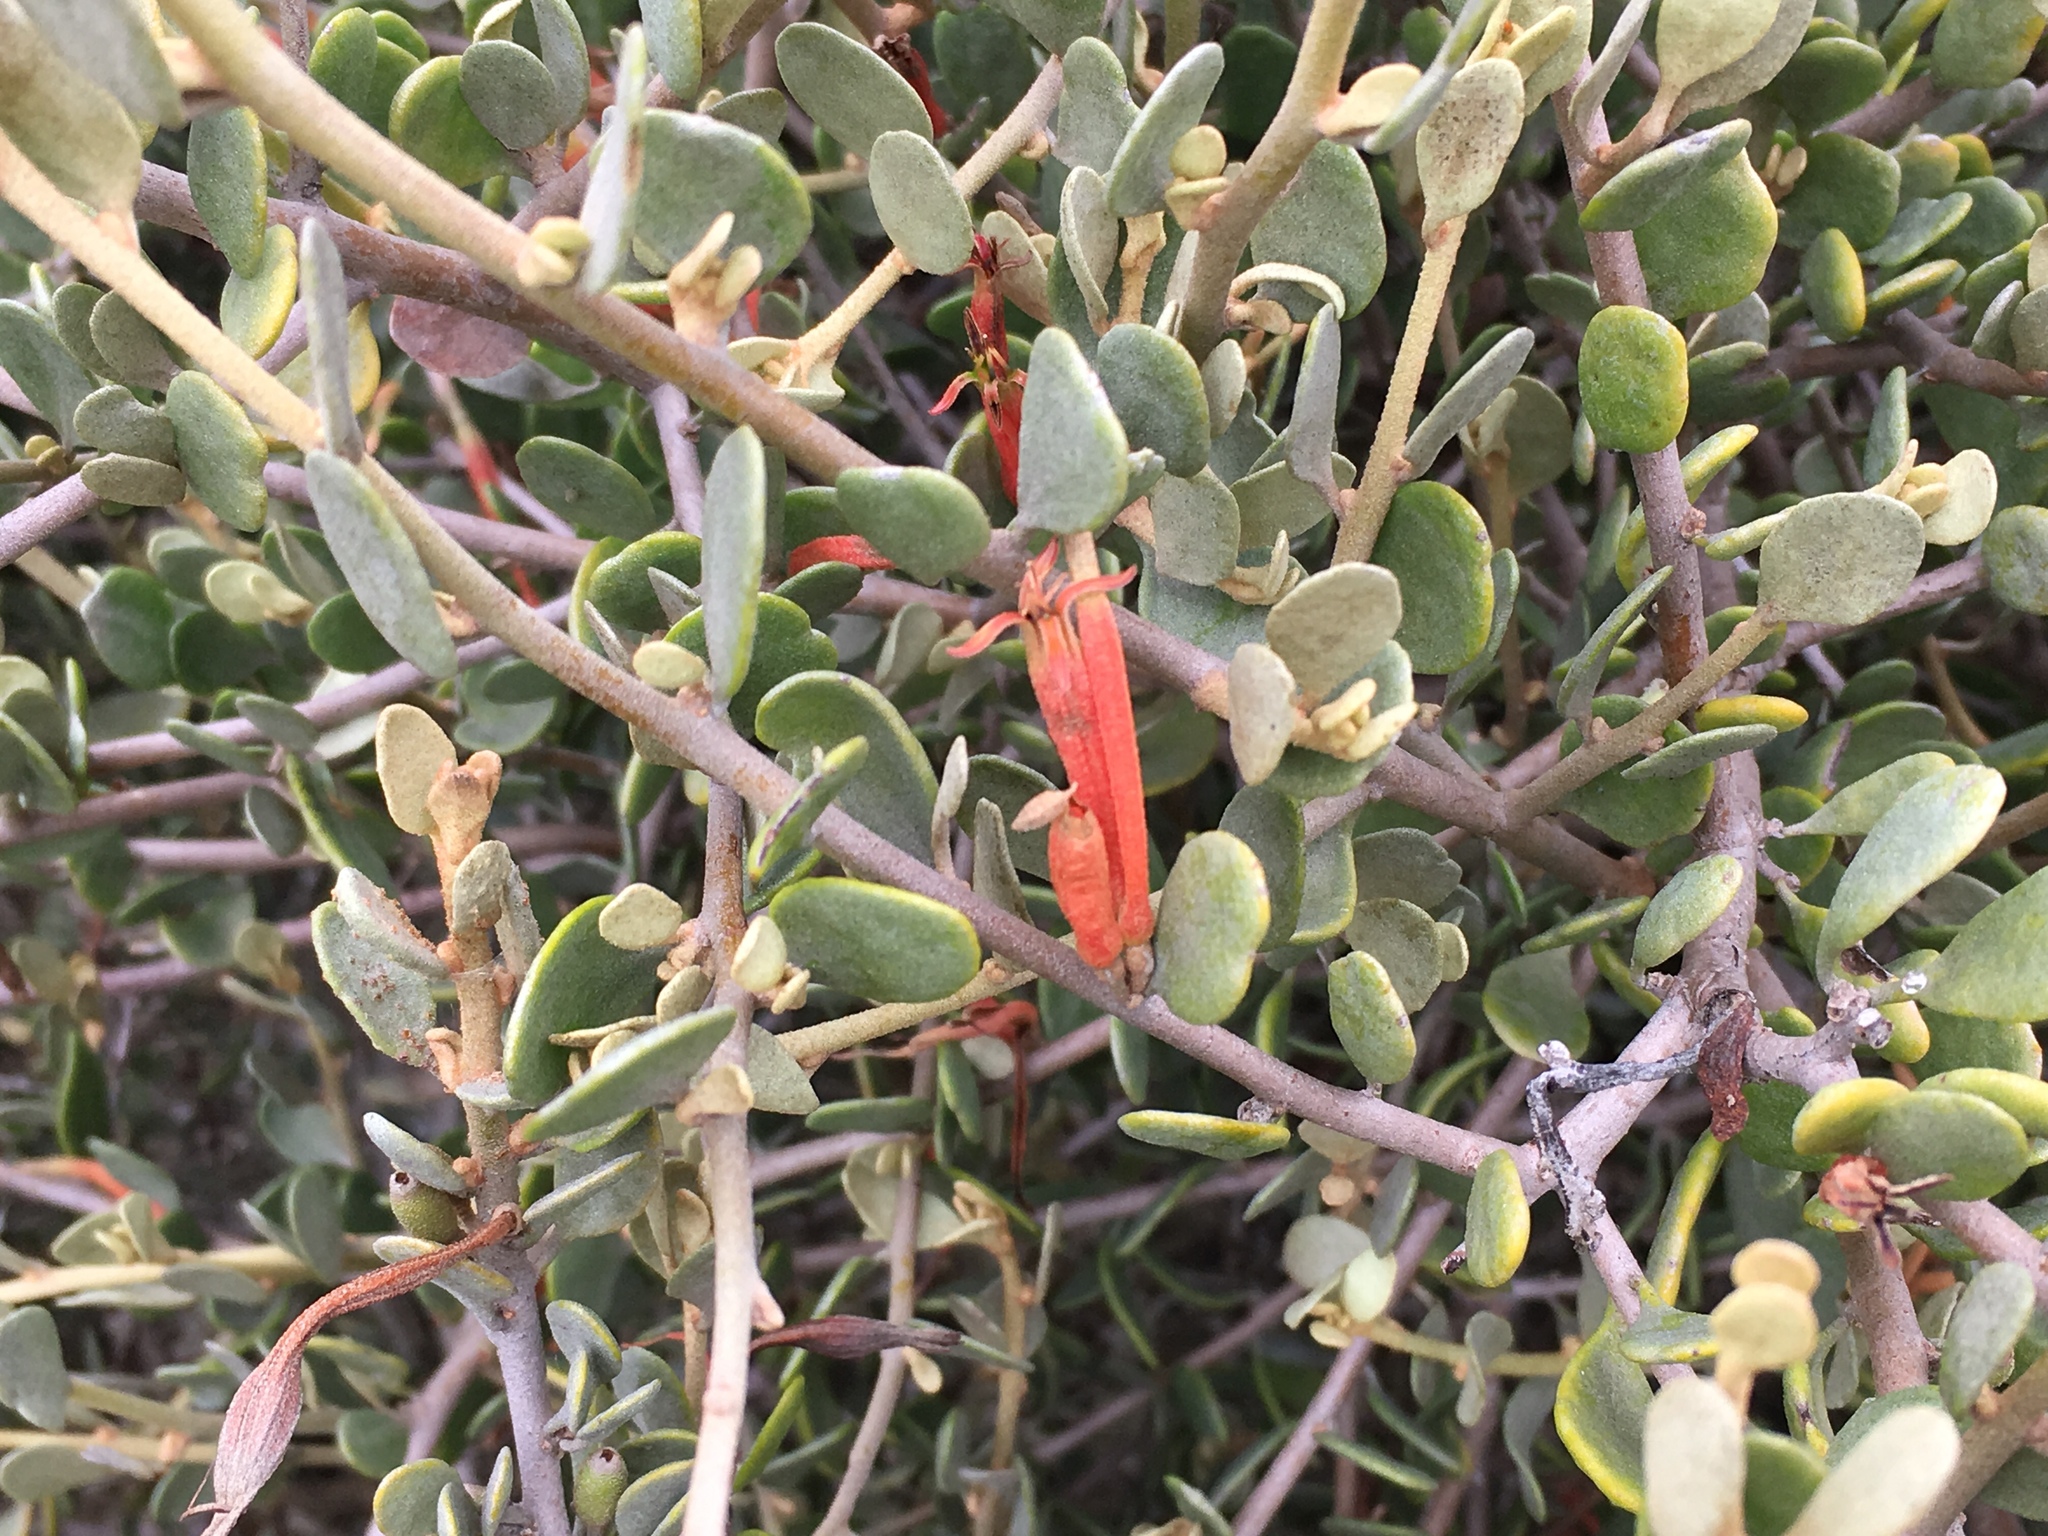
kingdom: Plantae
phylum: Tracheophyta
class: Magnoliopsida
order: Santalales
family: Loranthaceae
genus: Septulina
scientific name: Septulina glauca
